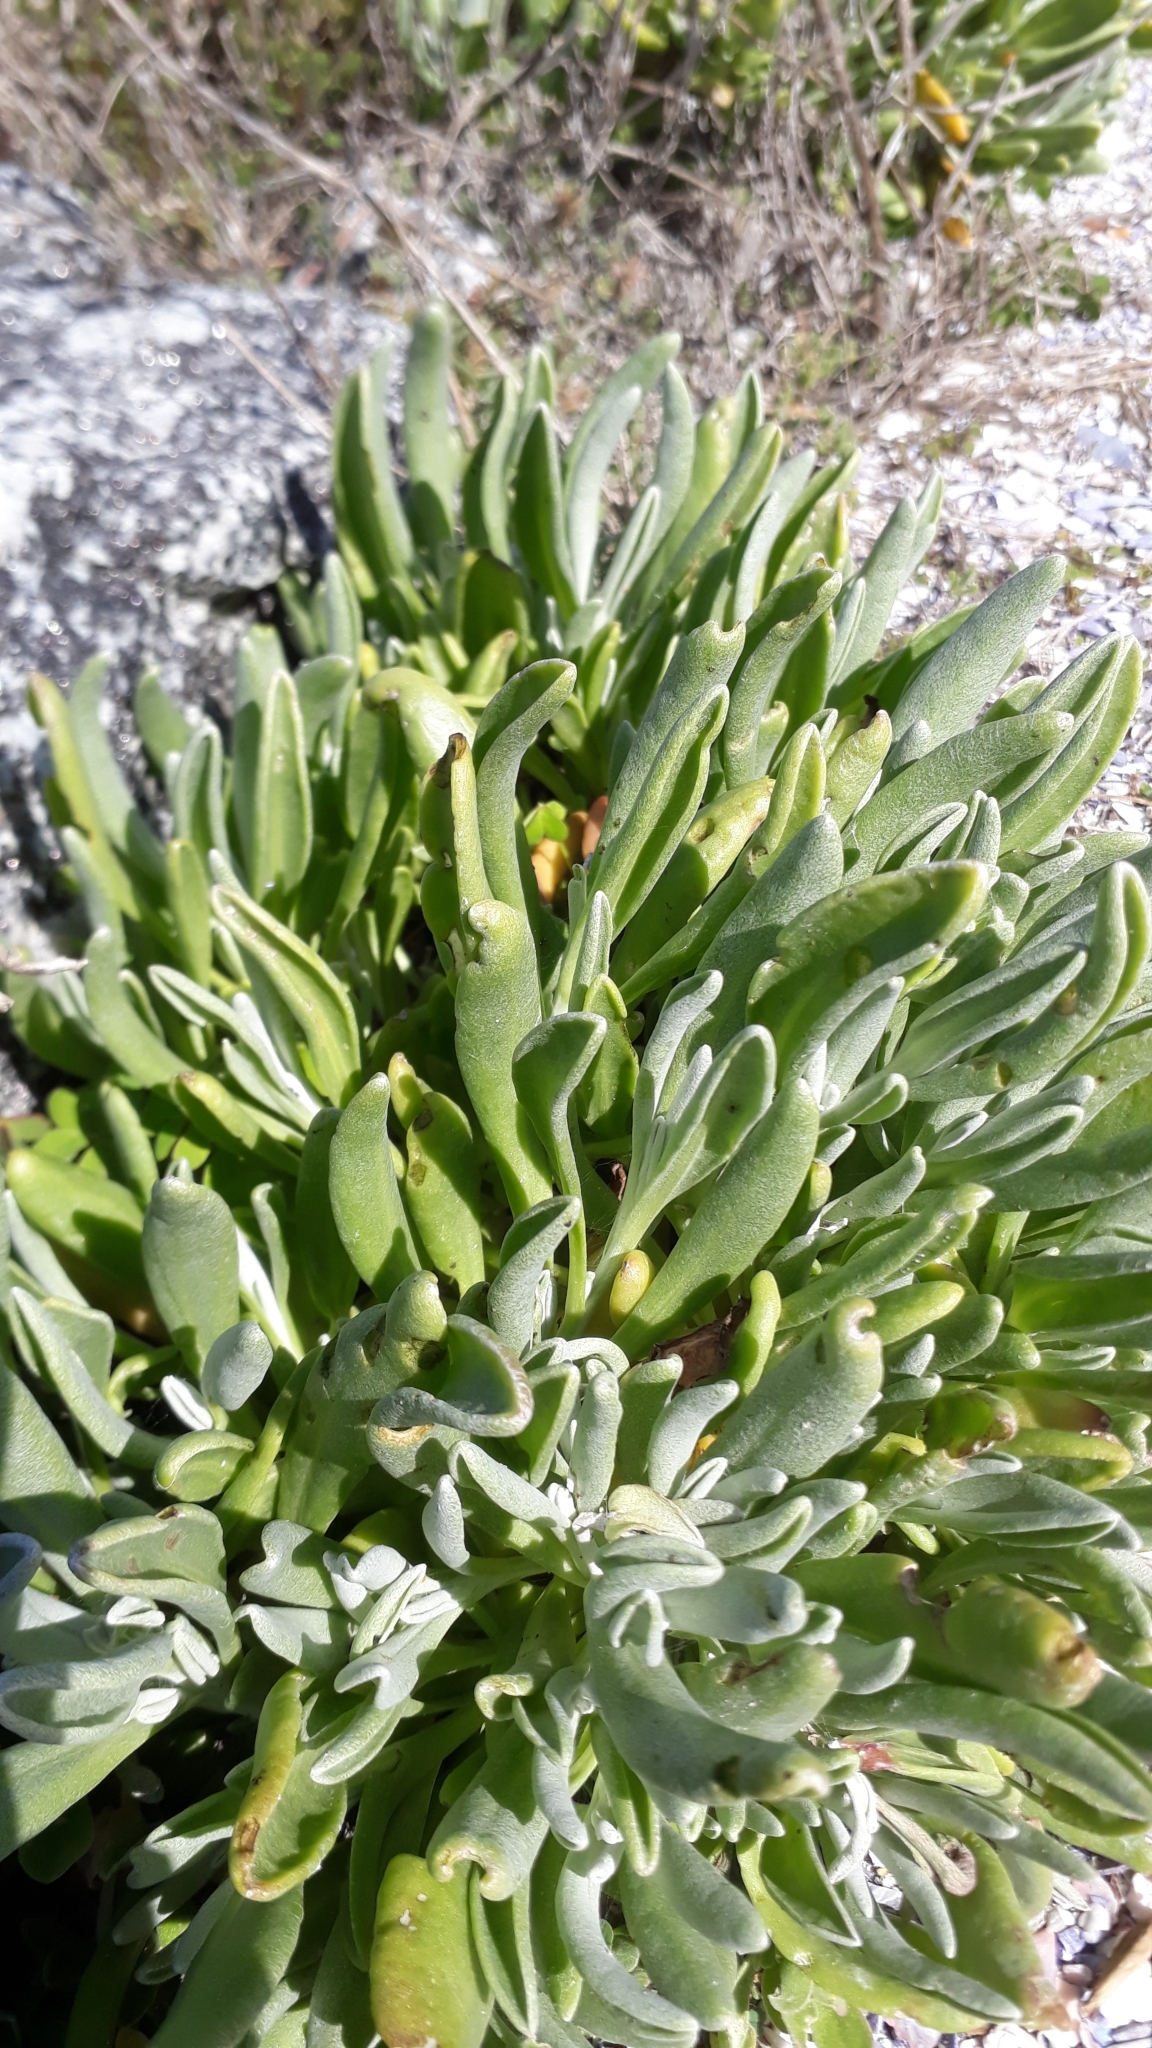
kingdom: Plantae
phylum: Tracheophyta
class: Magnoliopsida
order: Asterales
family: Asteraceae
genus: Didelta
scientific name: Didelta carnosa
